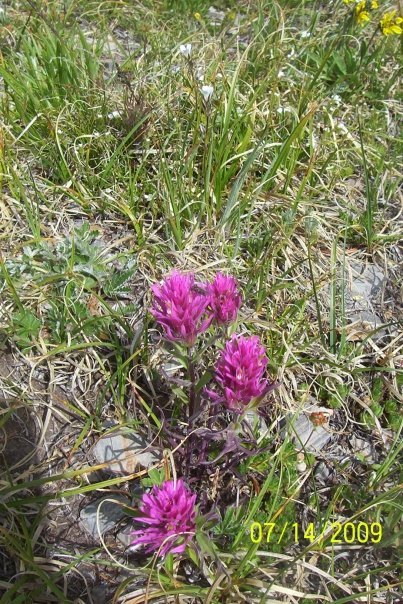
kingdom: Plantae
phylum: Tracheophyta
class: Magnoliopsida
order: Lamiales
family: Orobanchaceae
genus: Castilleja
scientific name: Castilleja haydenii
